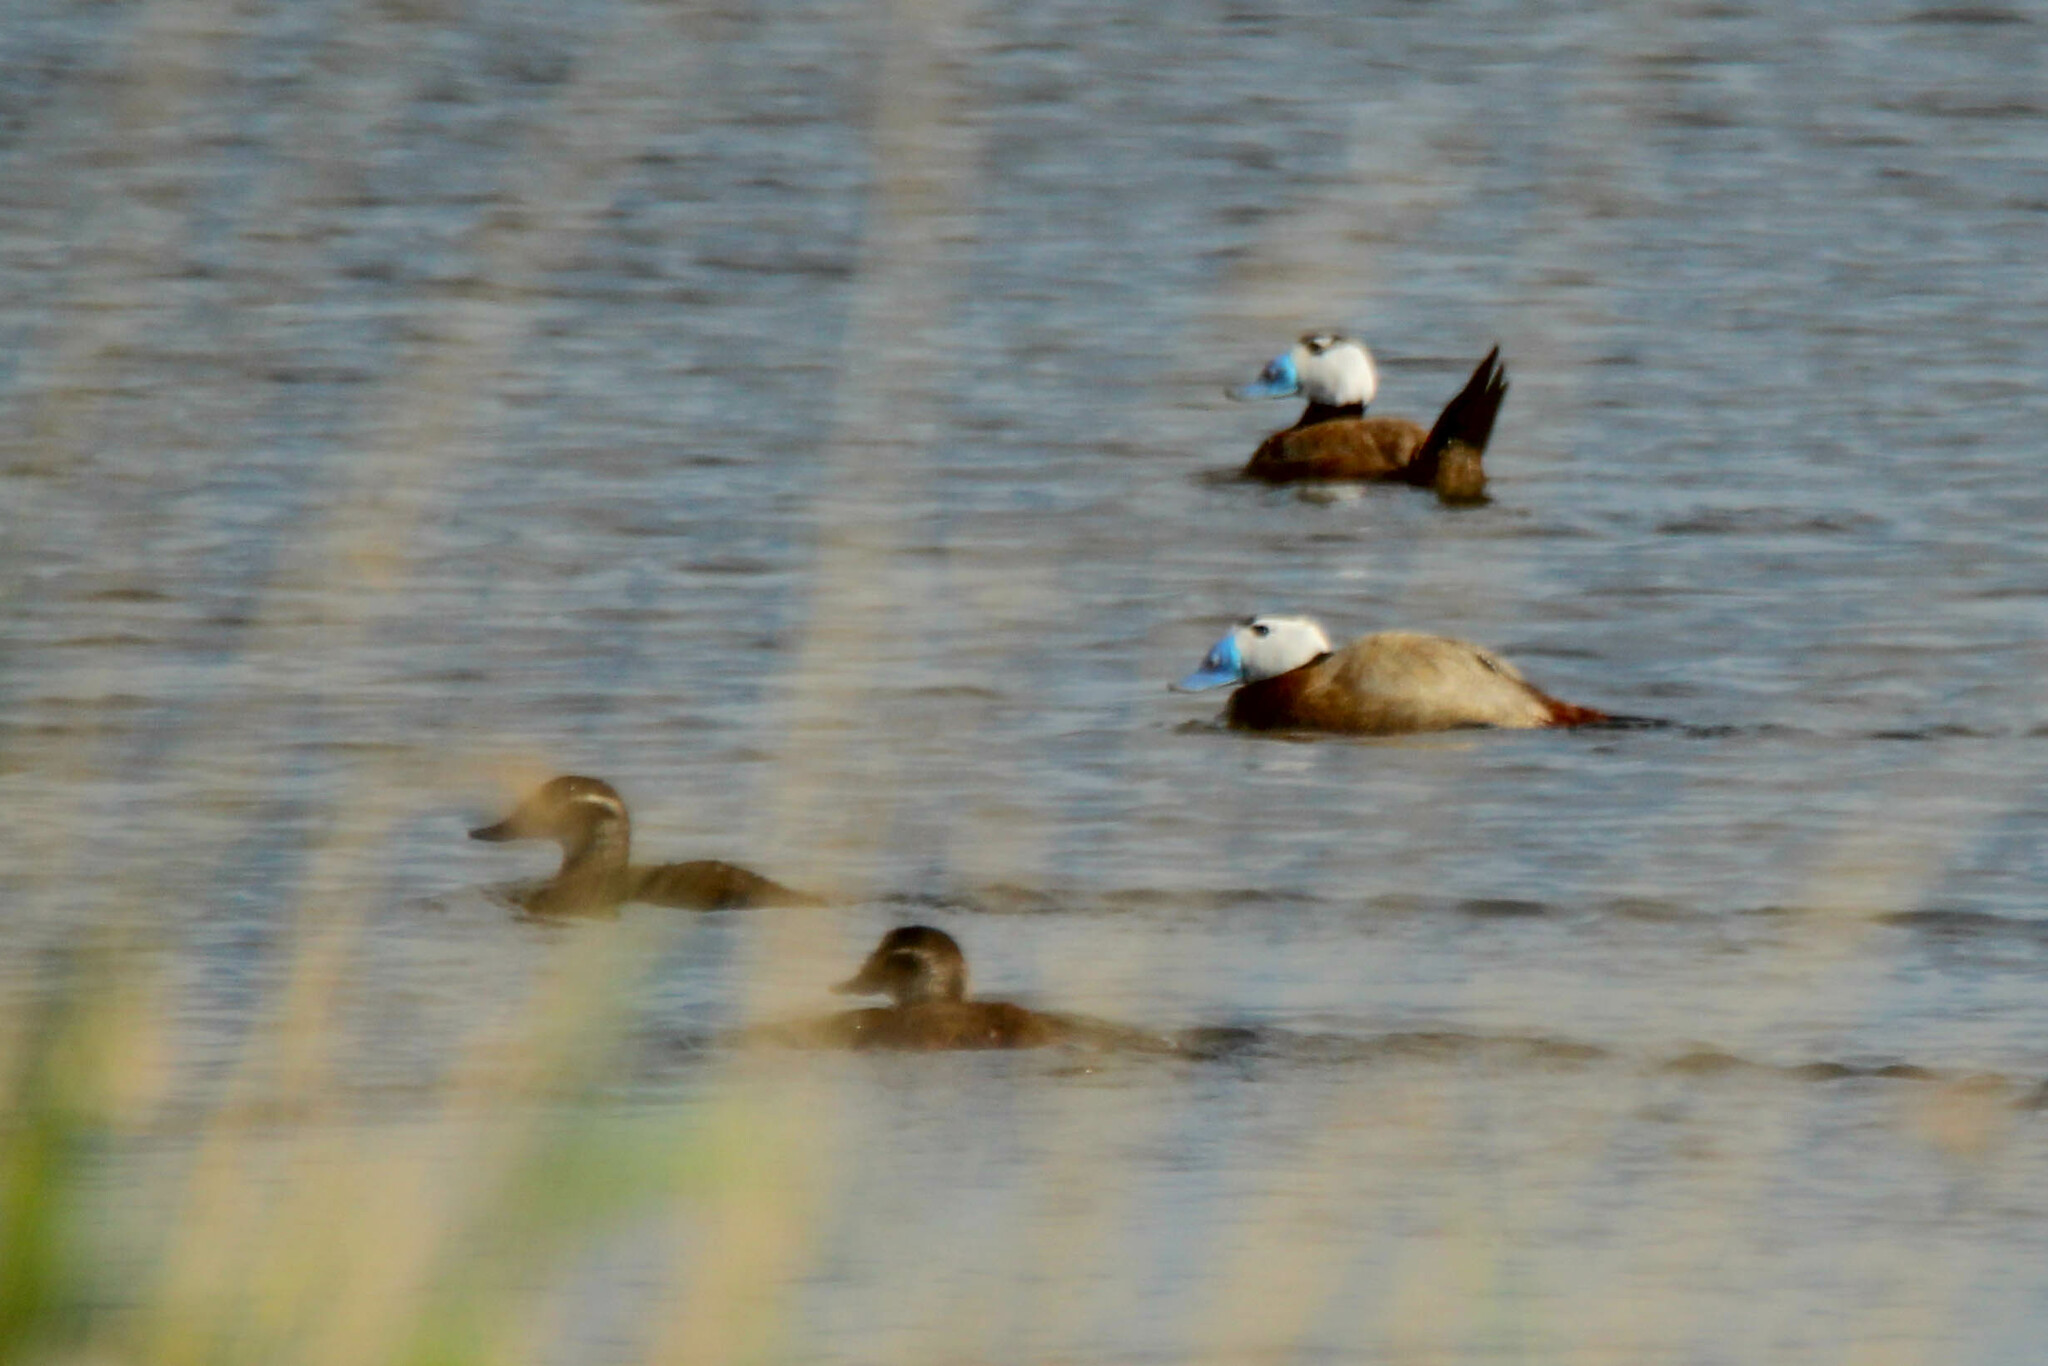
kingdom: Animalia
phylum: Chordata
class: Aves
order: Anseriformes
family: Anatidae
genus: Oxyura
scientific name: Oxyura leucocephala
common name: White-headed duck
